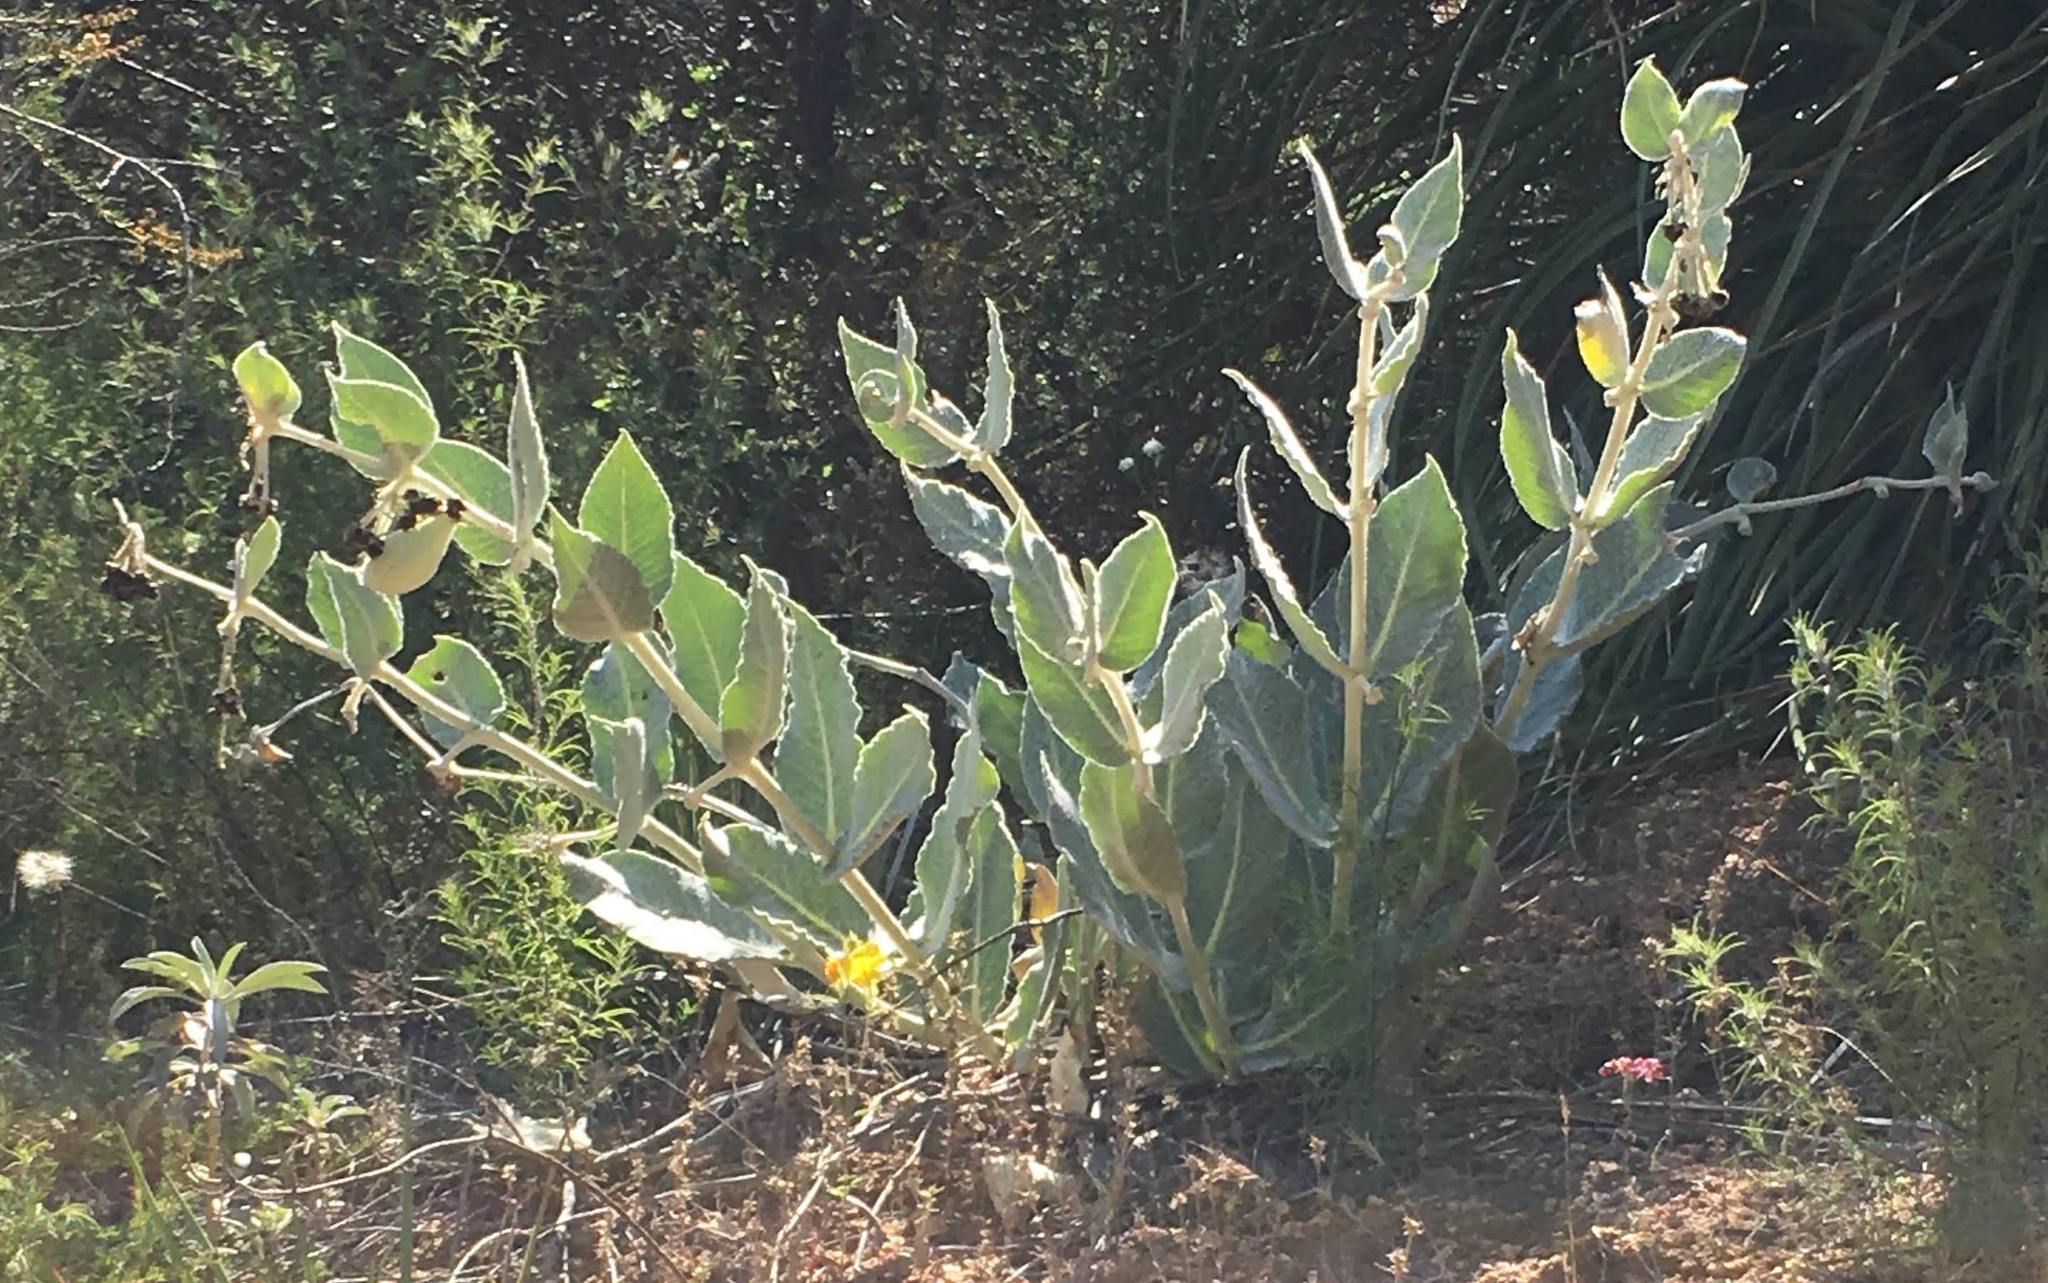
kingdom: Plantae
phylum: Tracheophyta
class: Magnoliopsida
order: Gentianales
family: Apocynaceae
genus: Asclepias
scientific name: Asclepias californica
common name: California milkweed
